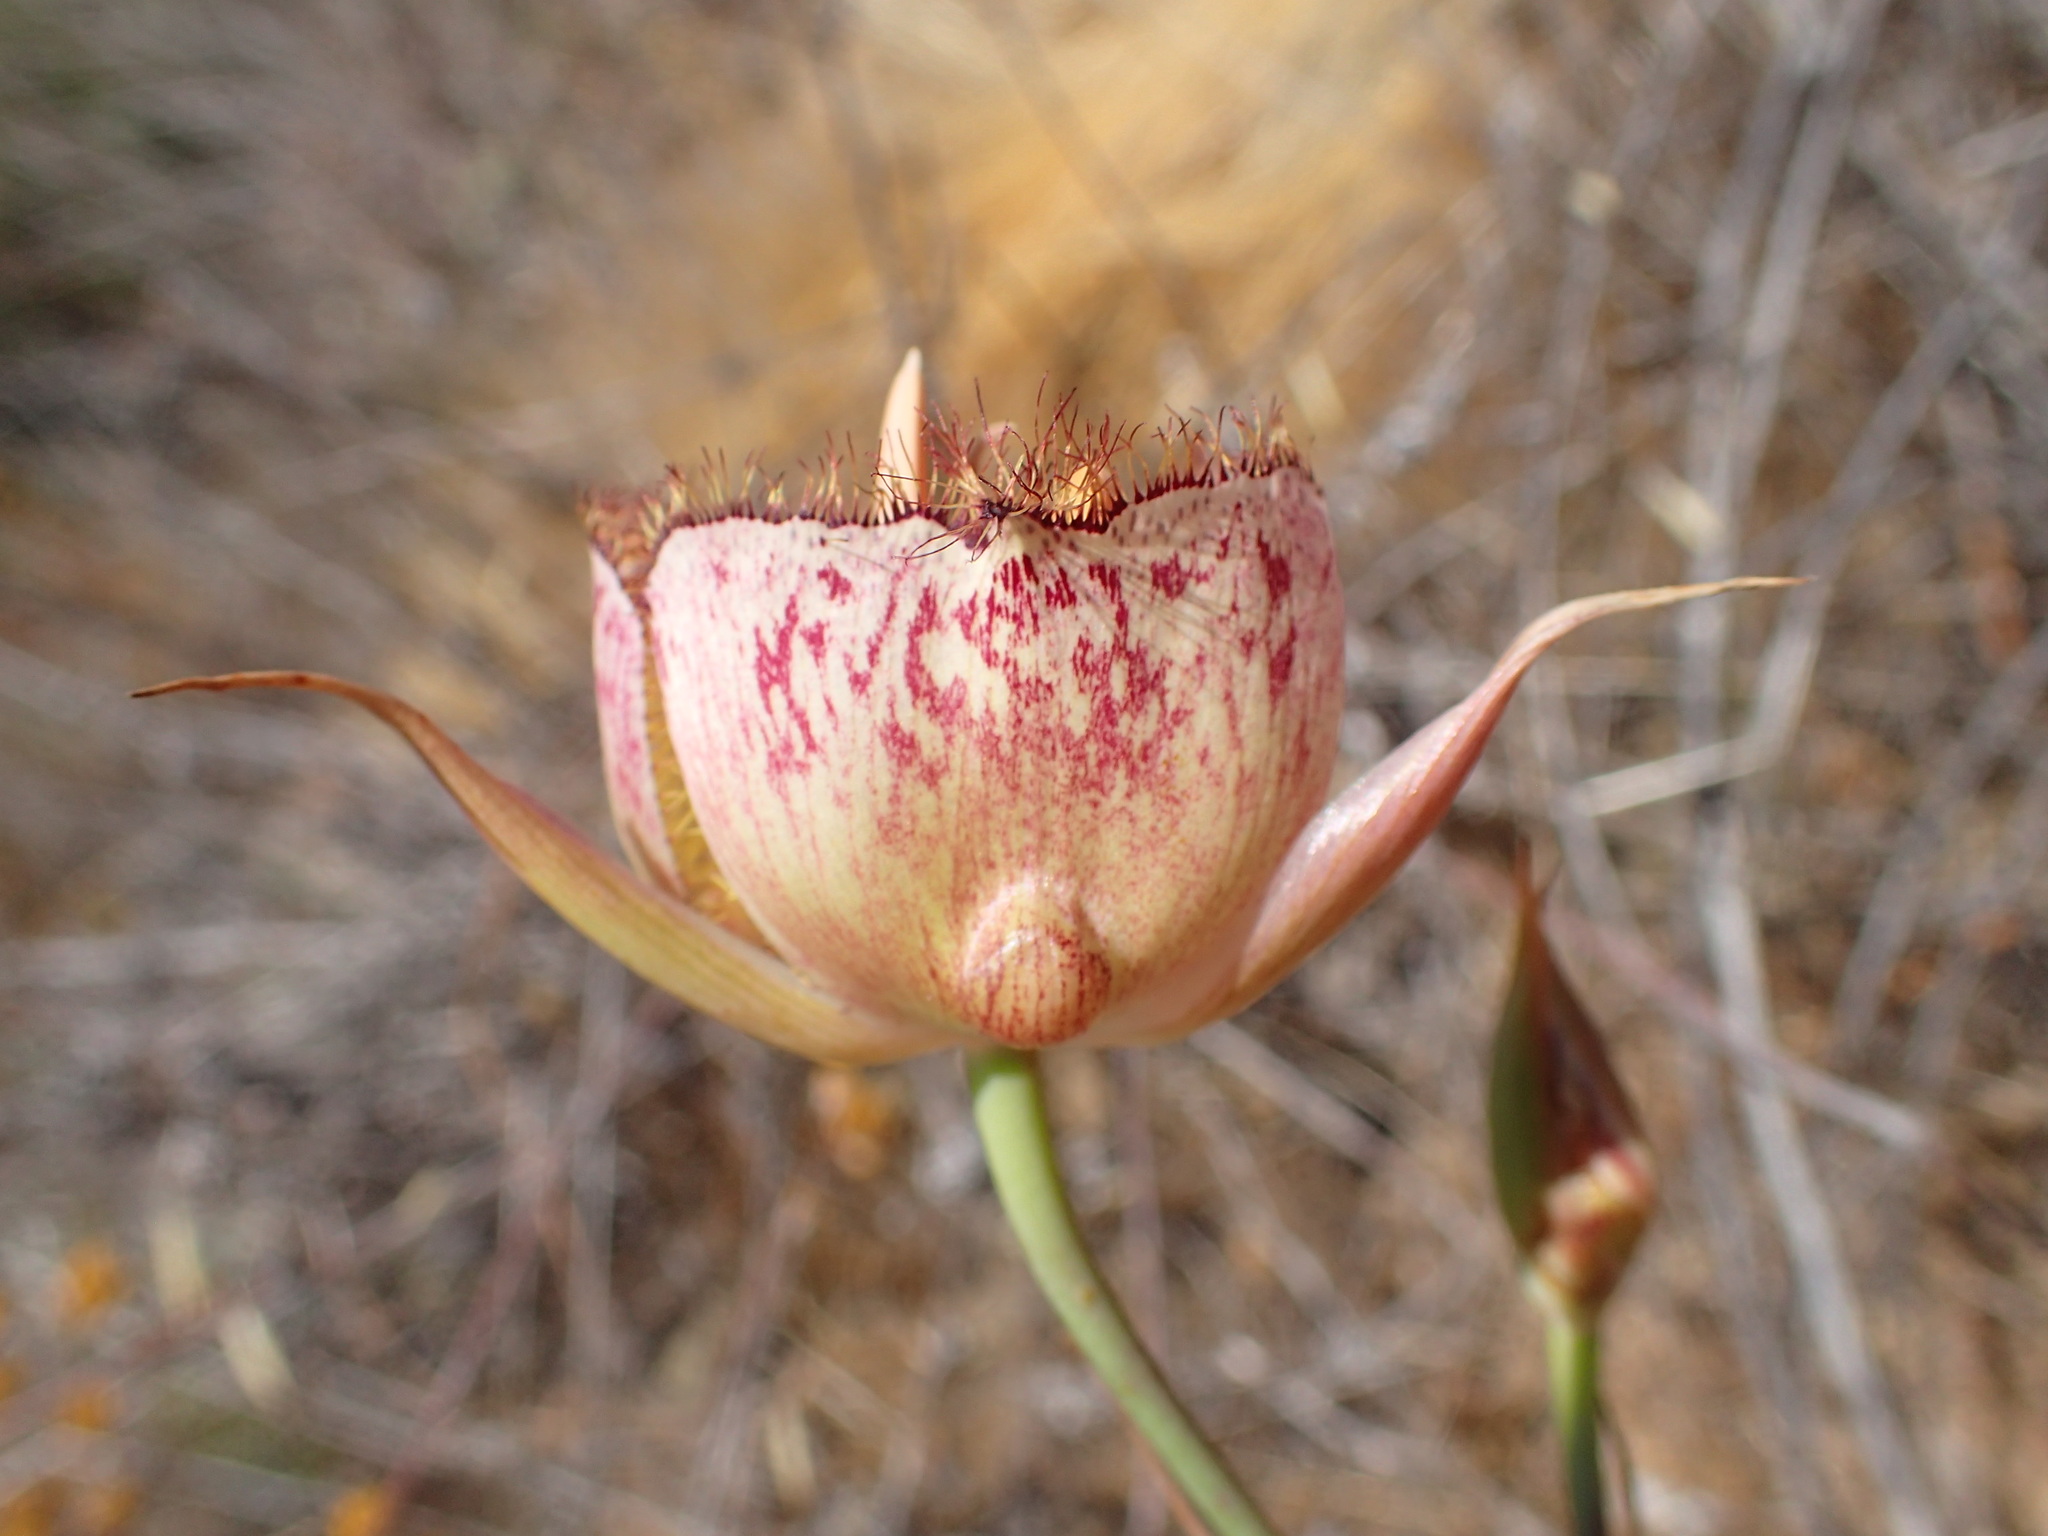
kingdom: Plantae
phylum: Tracheophyta
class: Liliopsida
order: Liliales
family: Liliaceae
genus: Calochortus
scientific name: Calochortus fimbriatus
